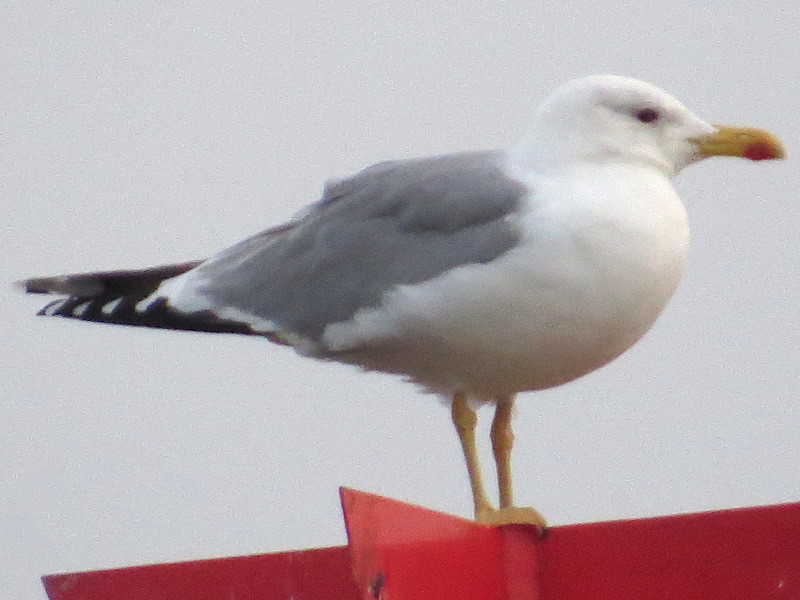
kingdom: Animalia
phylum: Chordata
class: Aves
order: Charadriiformes
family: Laridae
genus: Larus
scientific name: Larus michahellis
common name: Yellow-legged gull
